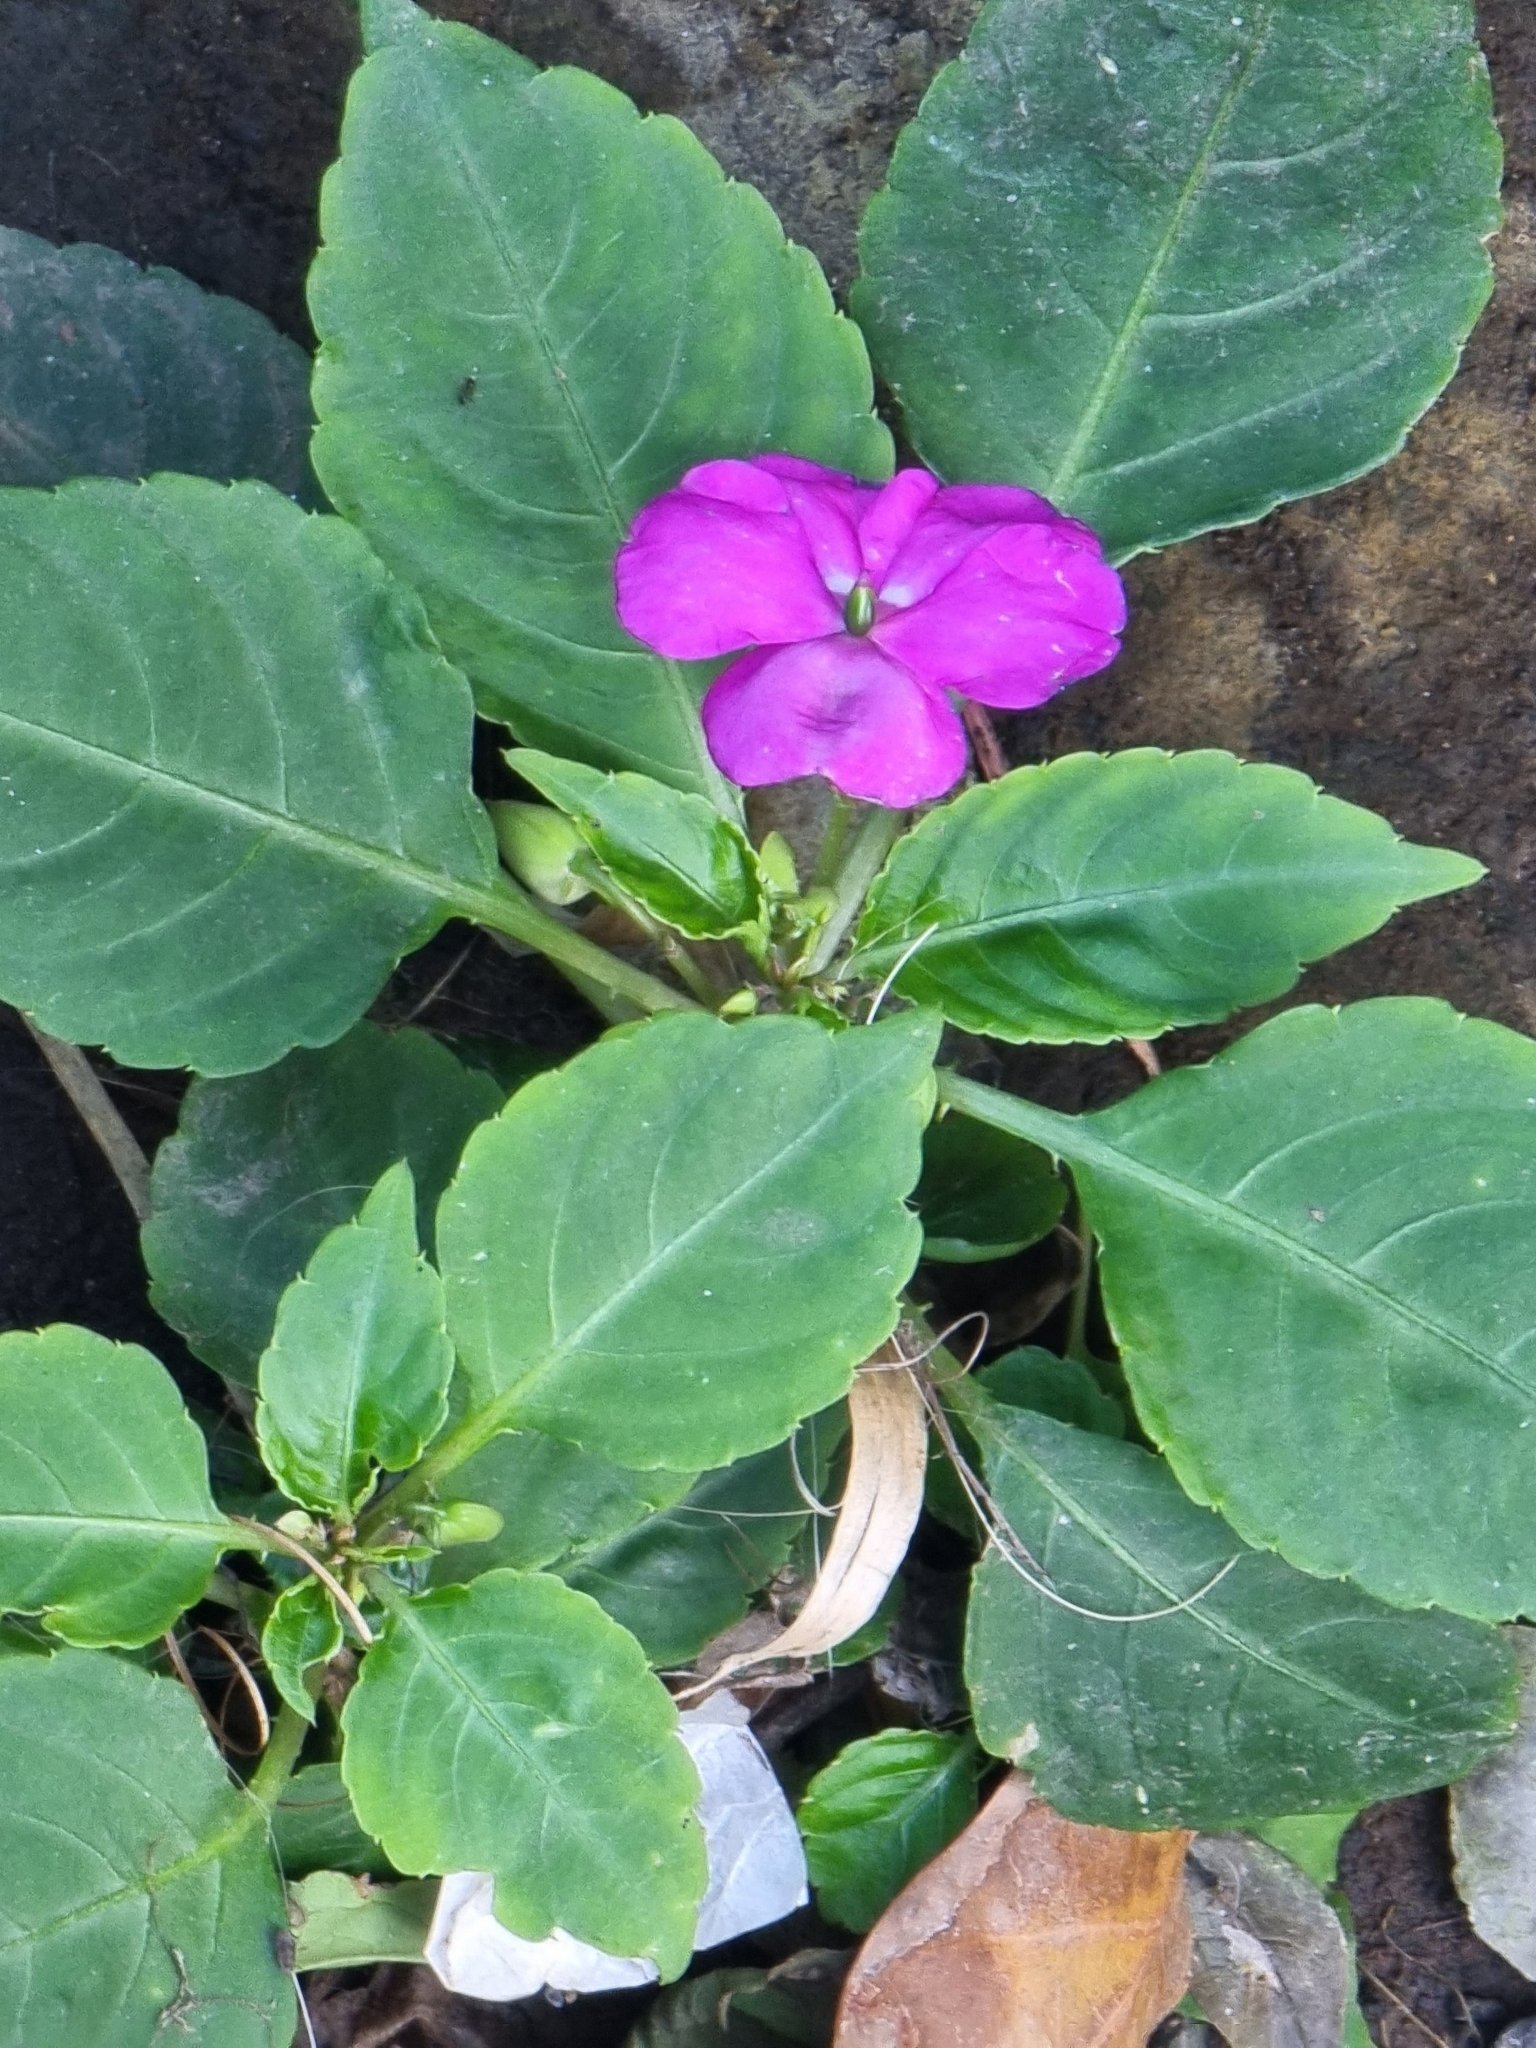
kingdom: Plantae
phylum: Tracheophyta
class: Magnoliopsida
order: Ericales
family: Balsaminaceae
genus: Impatiens
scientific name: Impatiens walleriana
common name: Buzzy lizzy
